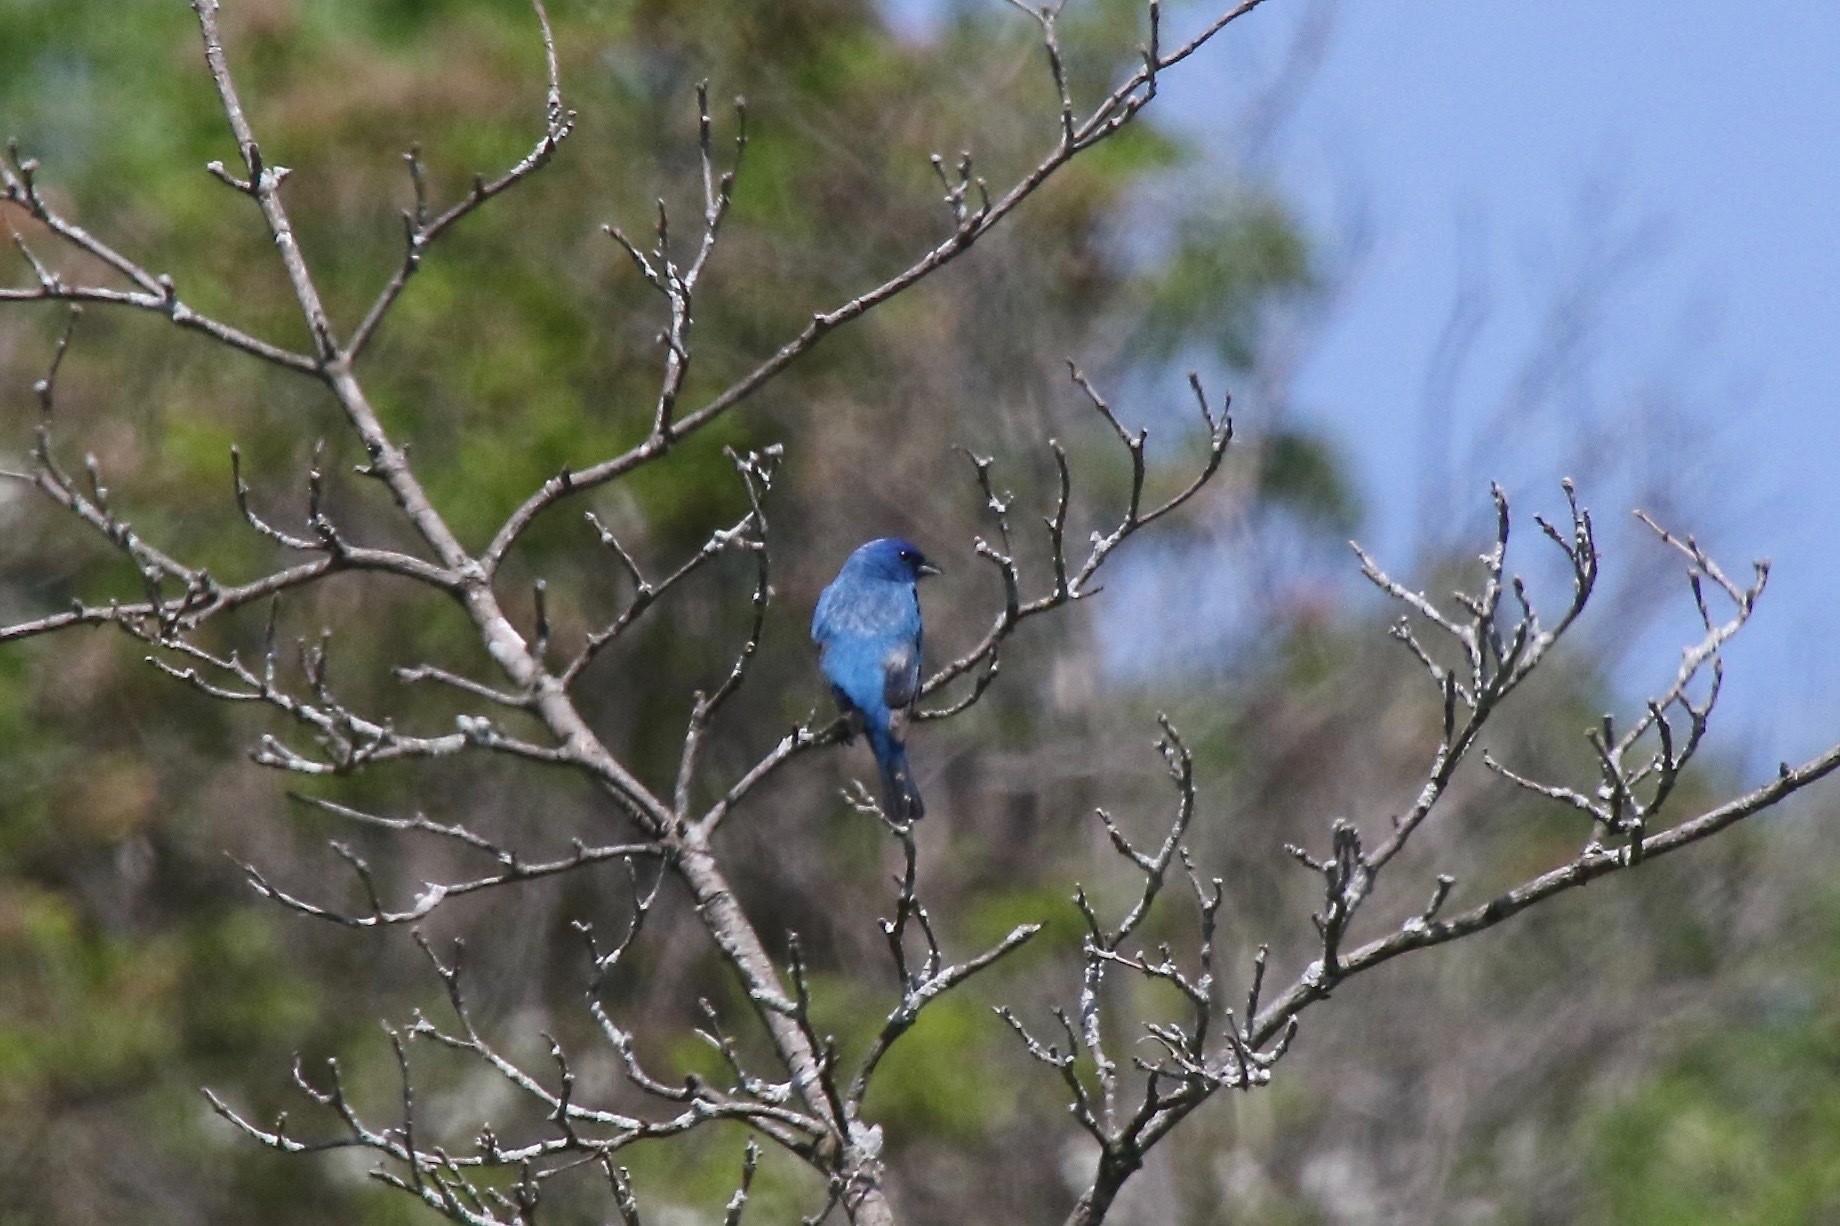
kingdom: Animalia
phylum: Chordata
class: Aves
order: Passeriformes
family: Cardinalidae
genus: Passerina
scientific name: Passerina cyanea
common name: Indigo bunting
